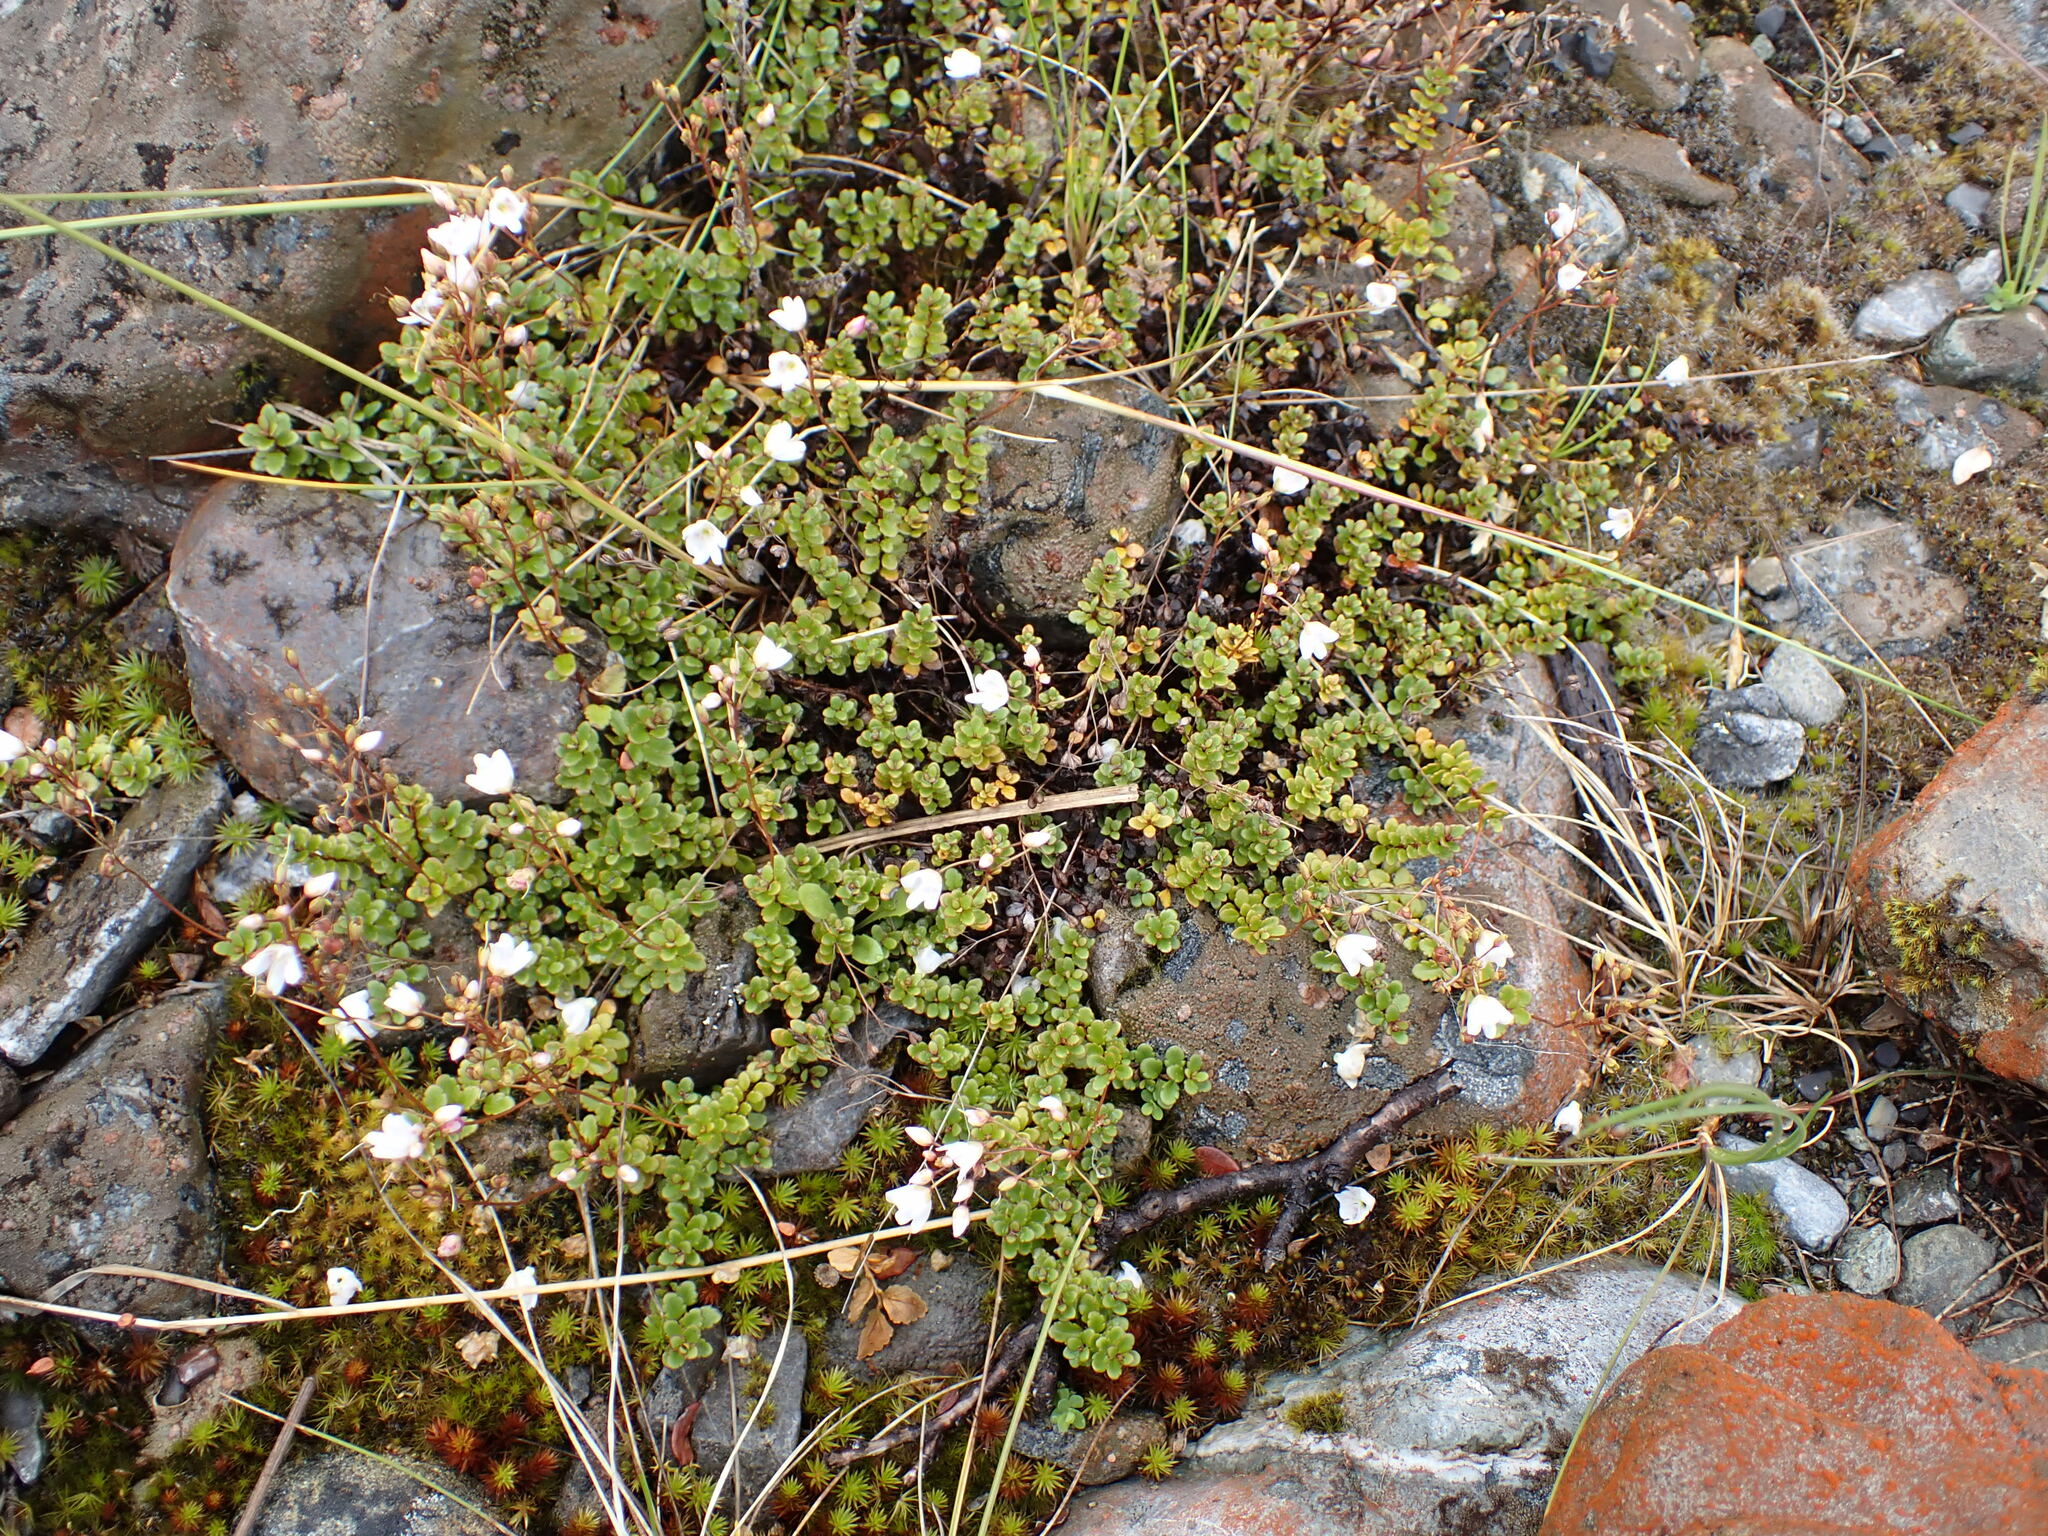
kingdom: Plantae
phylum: Tracheophyta
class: Magnoliopsida
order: Lamiales
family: Plantaginaceae
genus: Veronica
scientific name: Veronica lyallii
